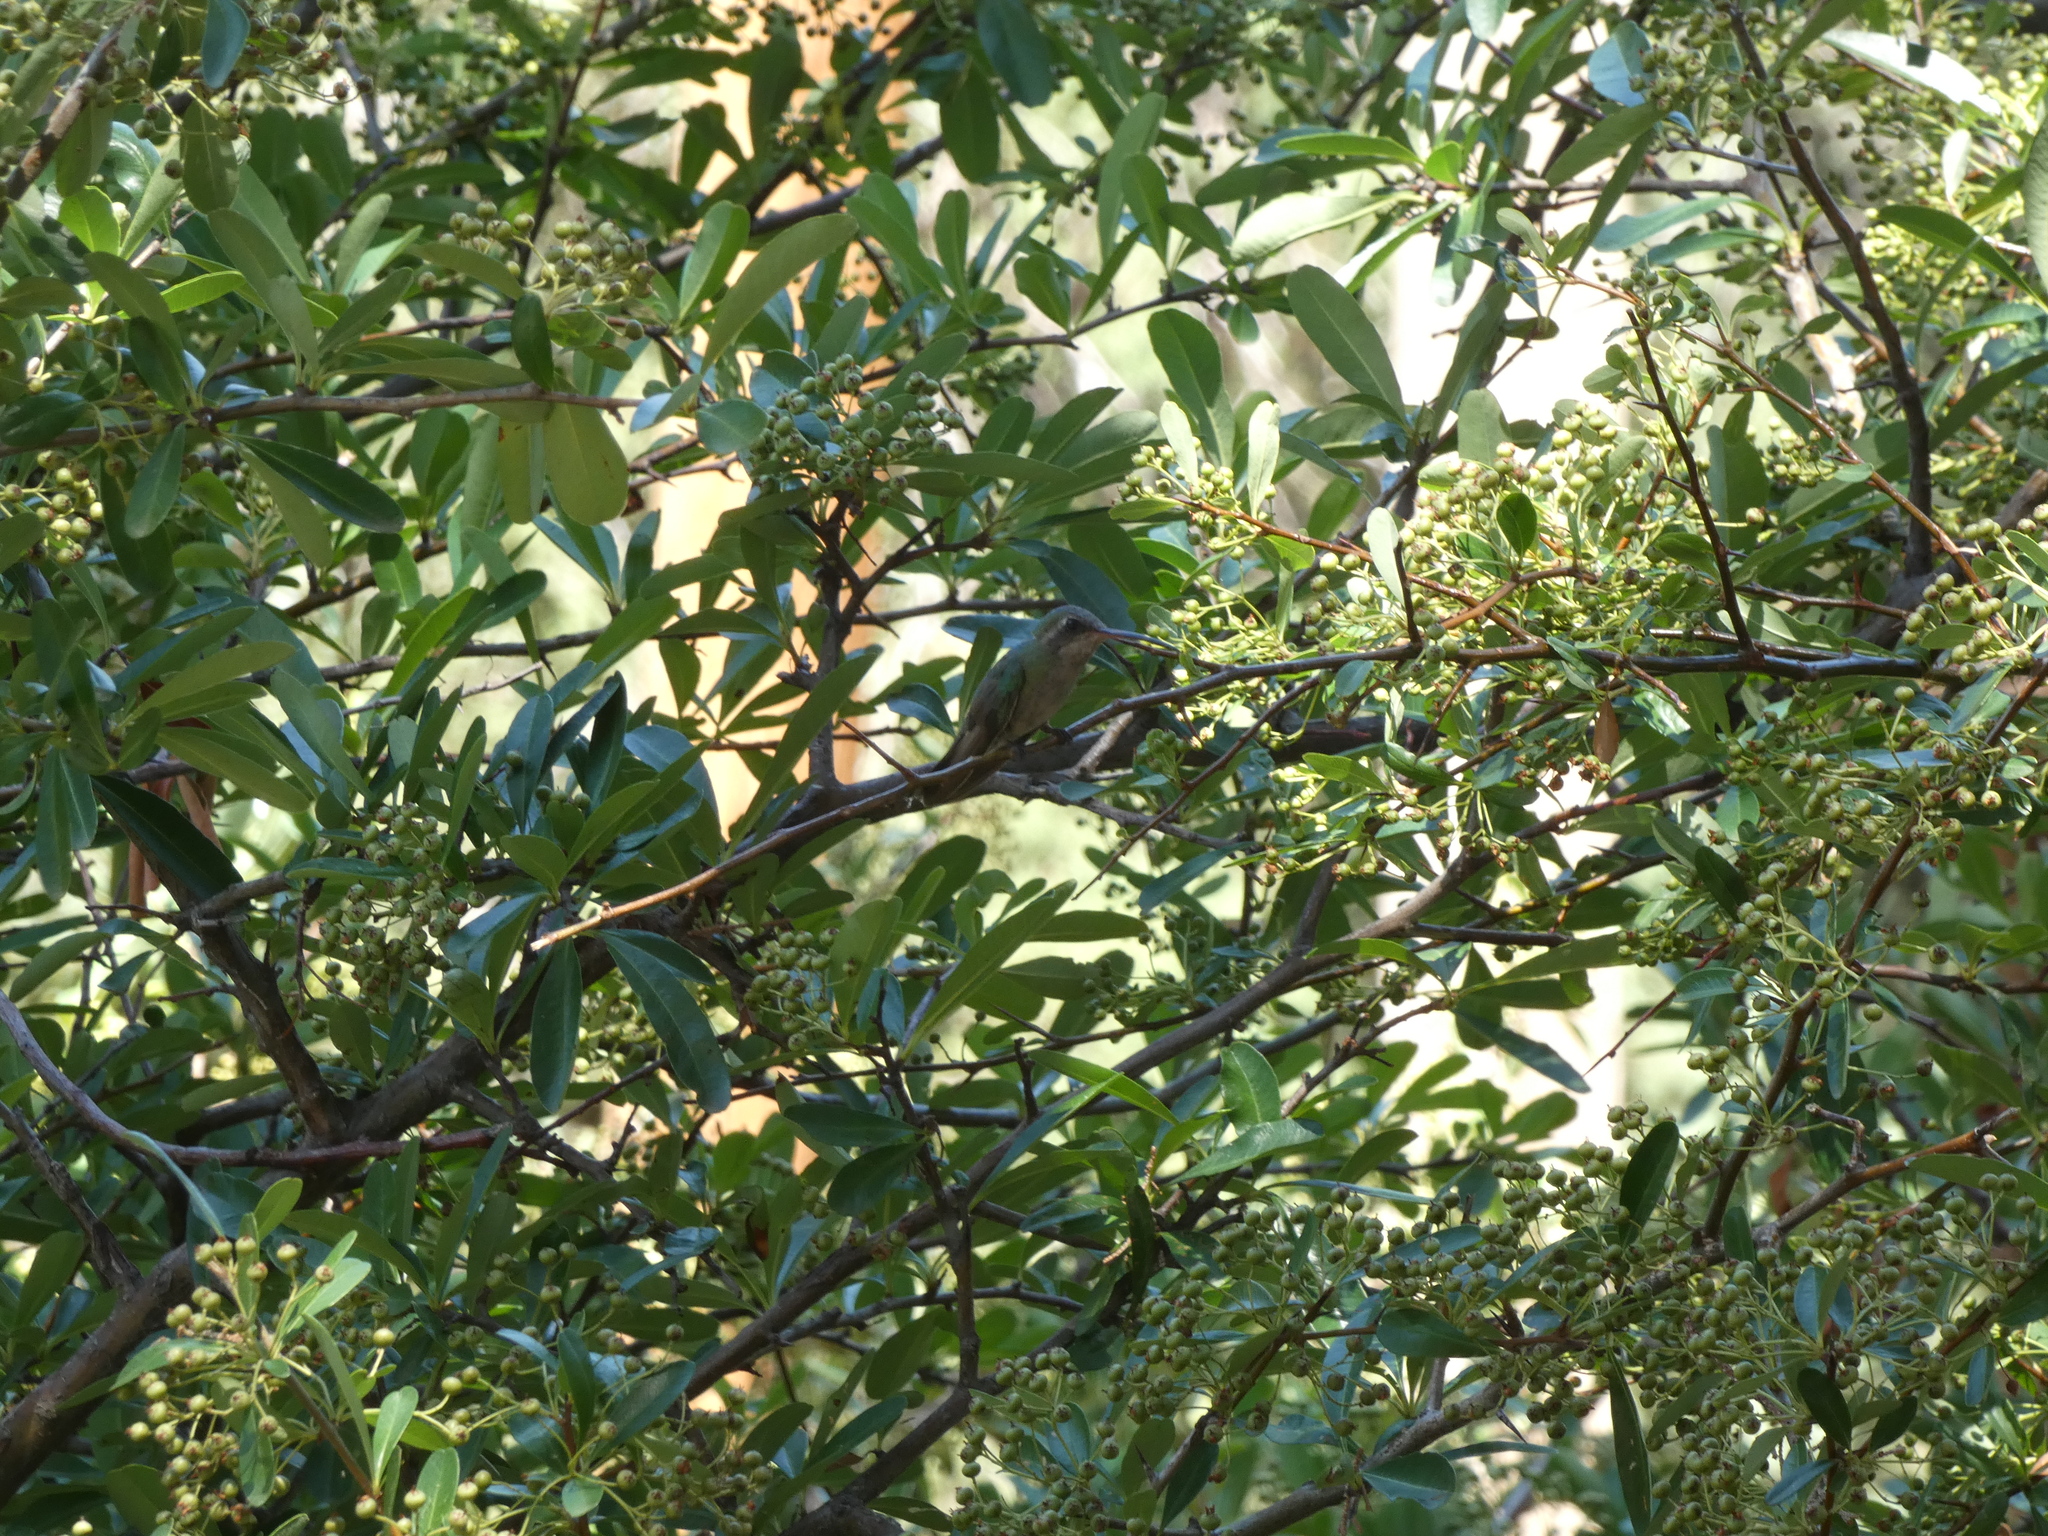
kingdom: Animalia
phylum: Chordata
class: Aves
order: Apodiformes
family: Trochilidae
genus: Cynanthus
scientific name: Cynanthus latirostris
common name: Broad-billed hummingbird
